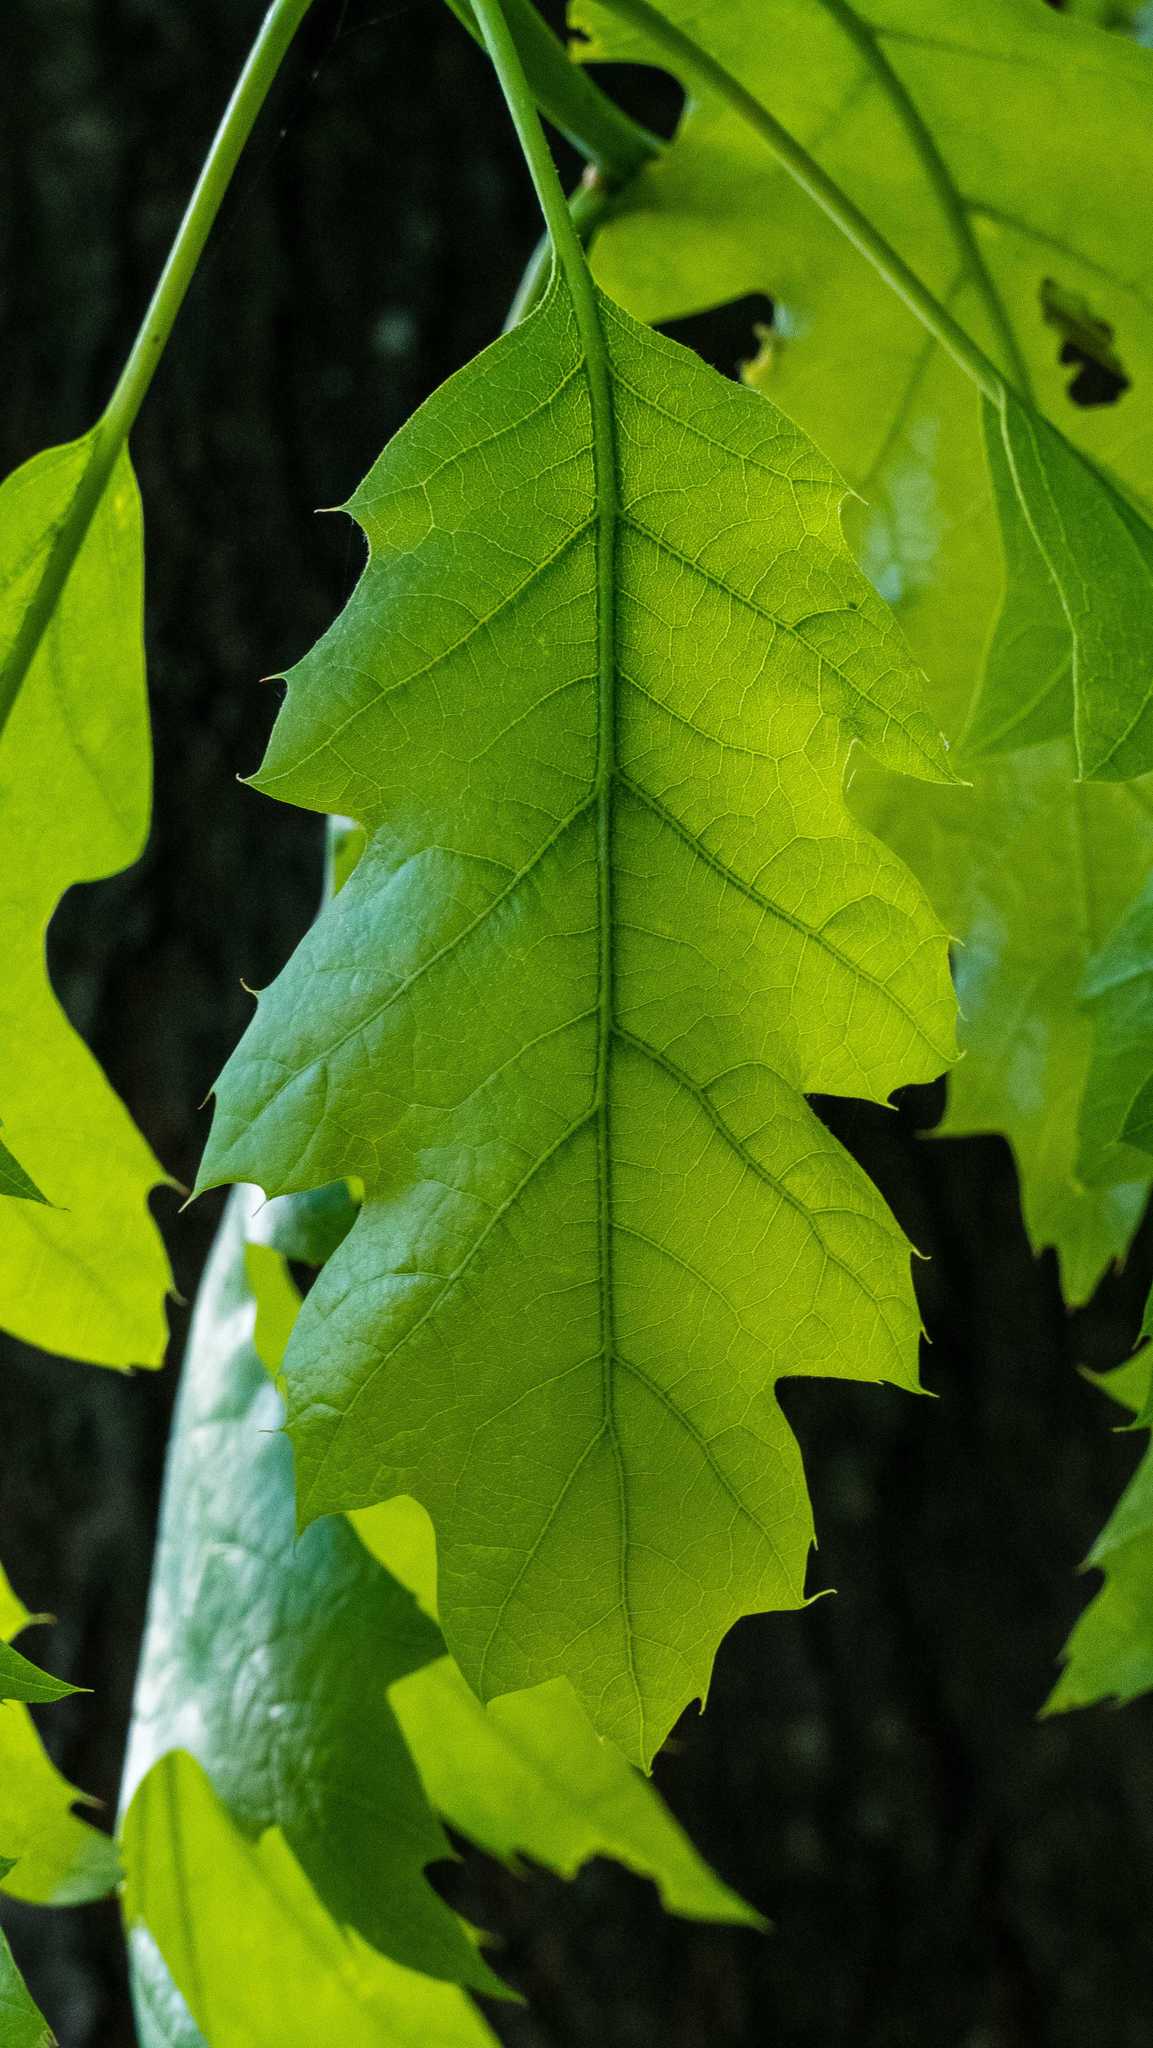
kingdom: Plantae
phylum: Tracheophyta
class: Magnoliopsida
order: Fagales
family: Fagaceae
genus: Quercus
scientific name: Quercus rubra
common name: Red oak
